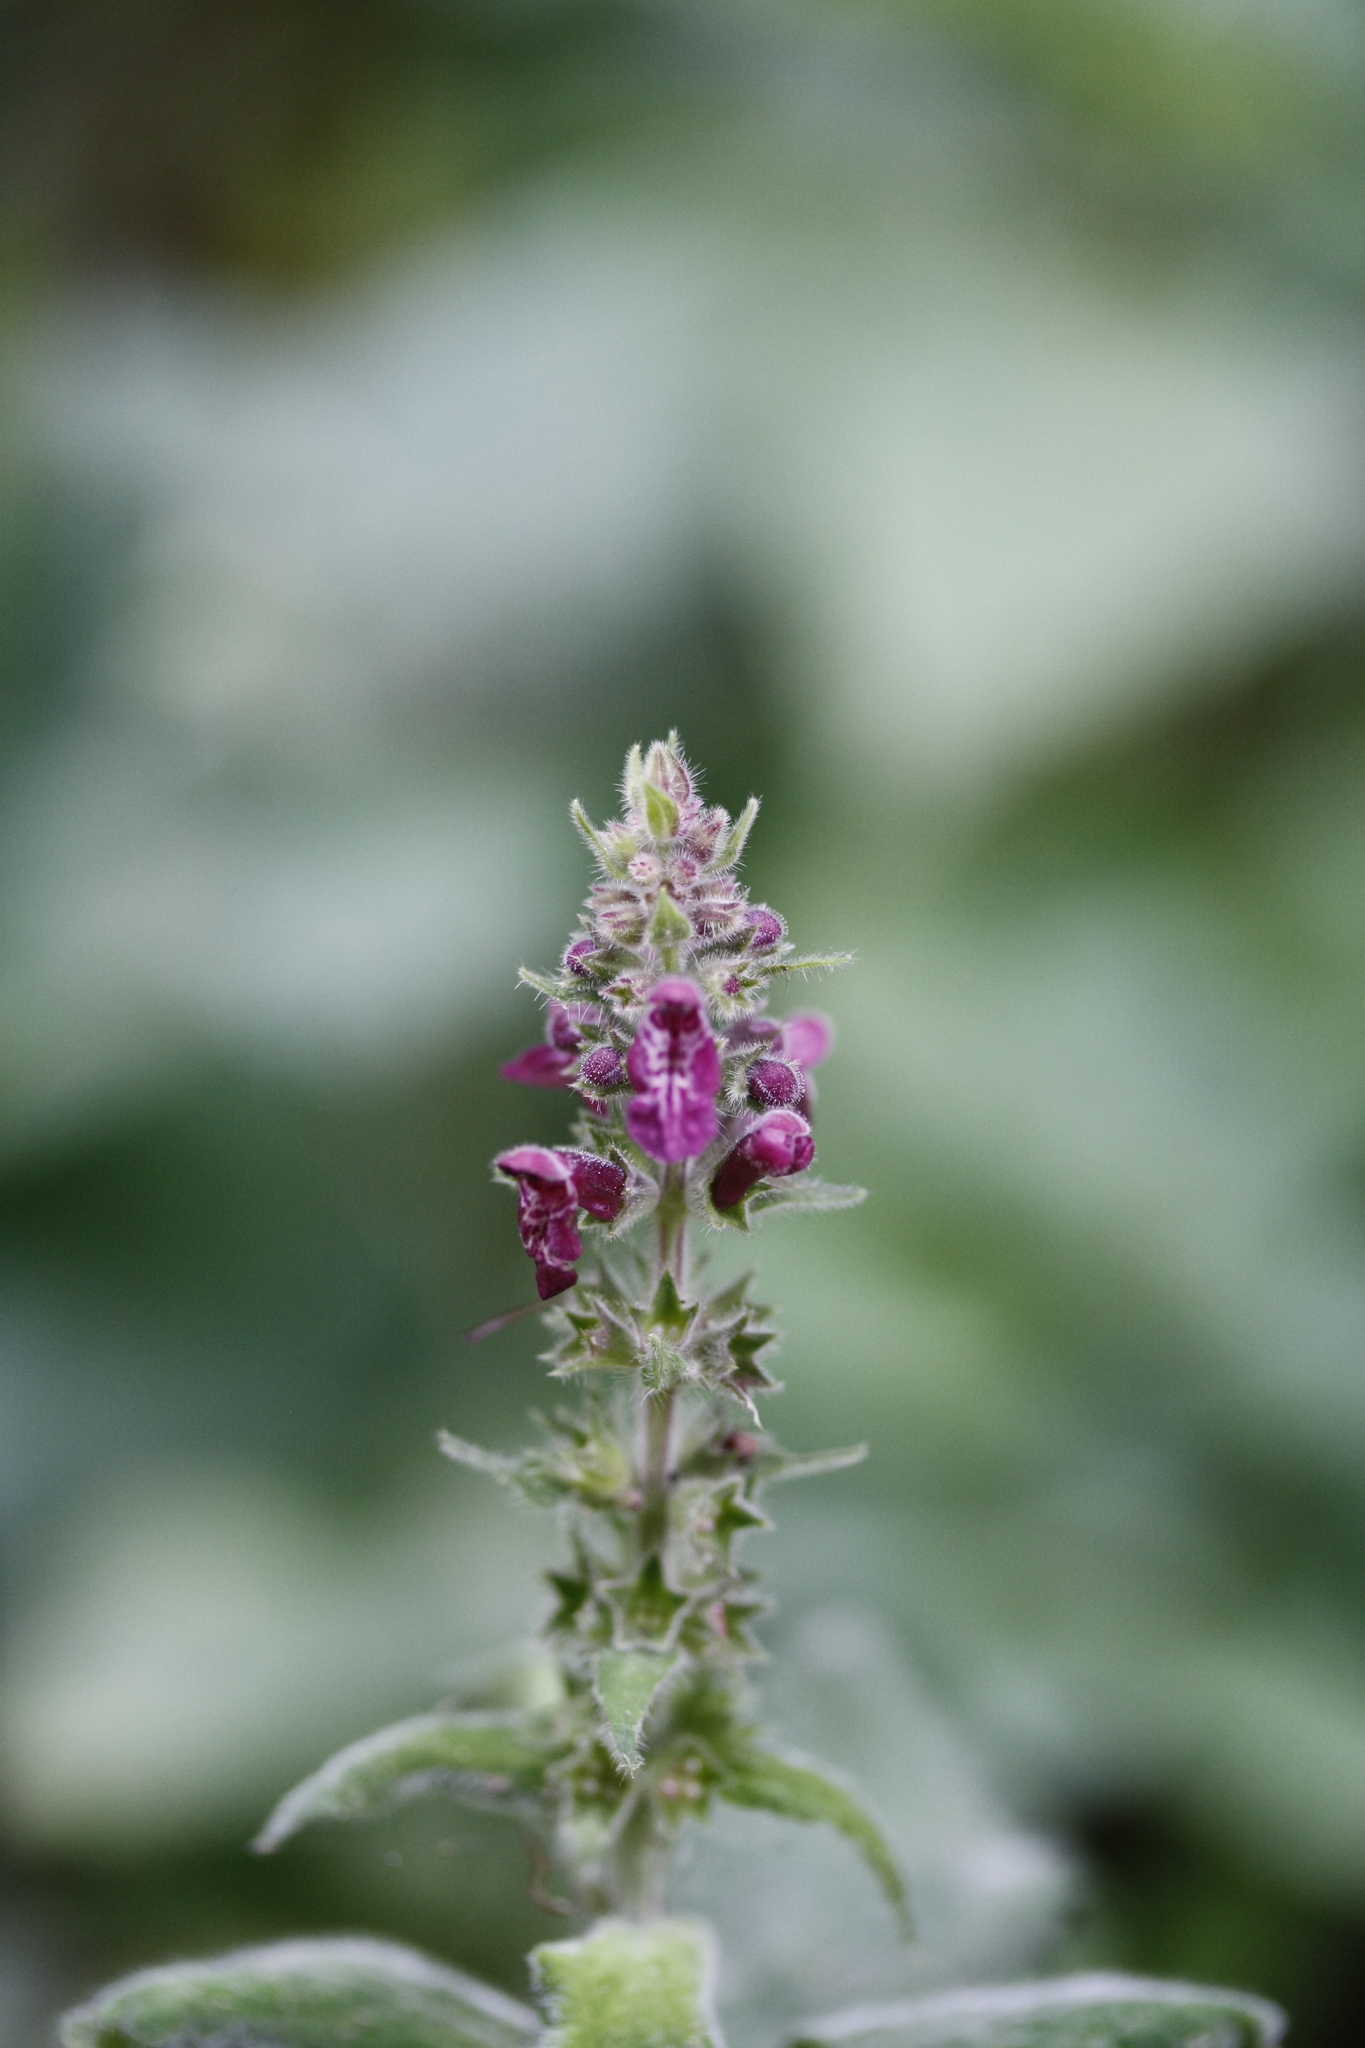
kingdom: Plantae
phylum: Tracheophyta
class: Magnoliopsida
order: Lamiales
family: Lamiaceae
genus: Stachys
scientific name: Stachys sylvatica
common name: Hedge woundwort
